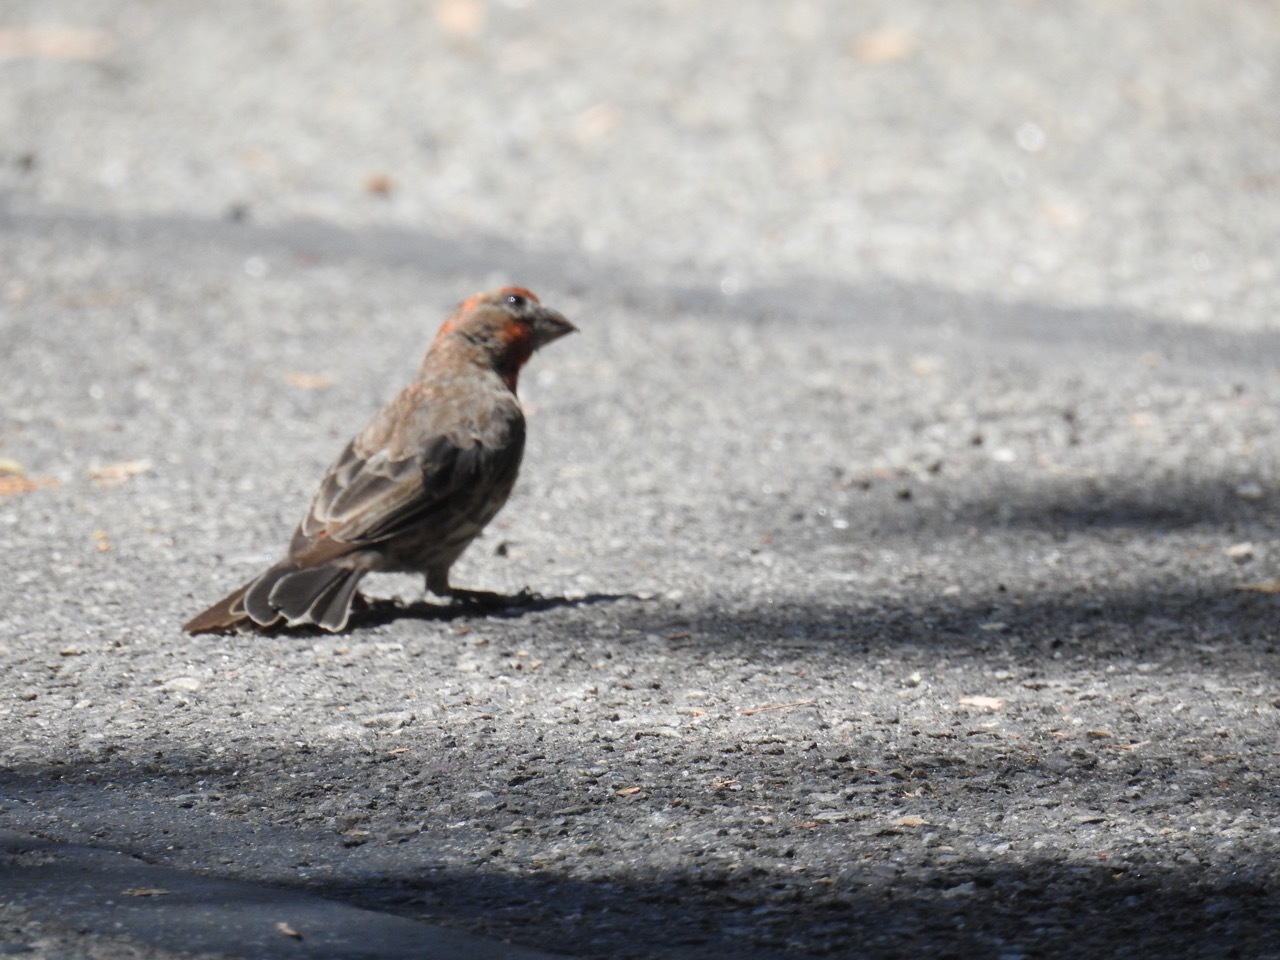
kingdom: Animalia
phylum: Chordata
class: Aves
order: Passeriformes
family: Fringillidae
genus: Haemorhous
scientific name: Haemorhous mexicanus
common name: House finch
